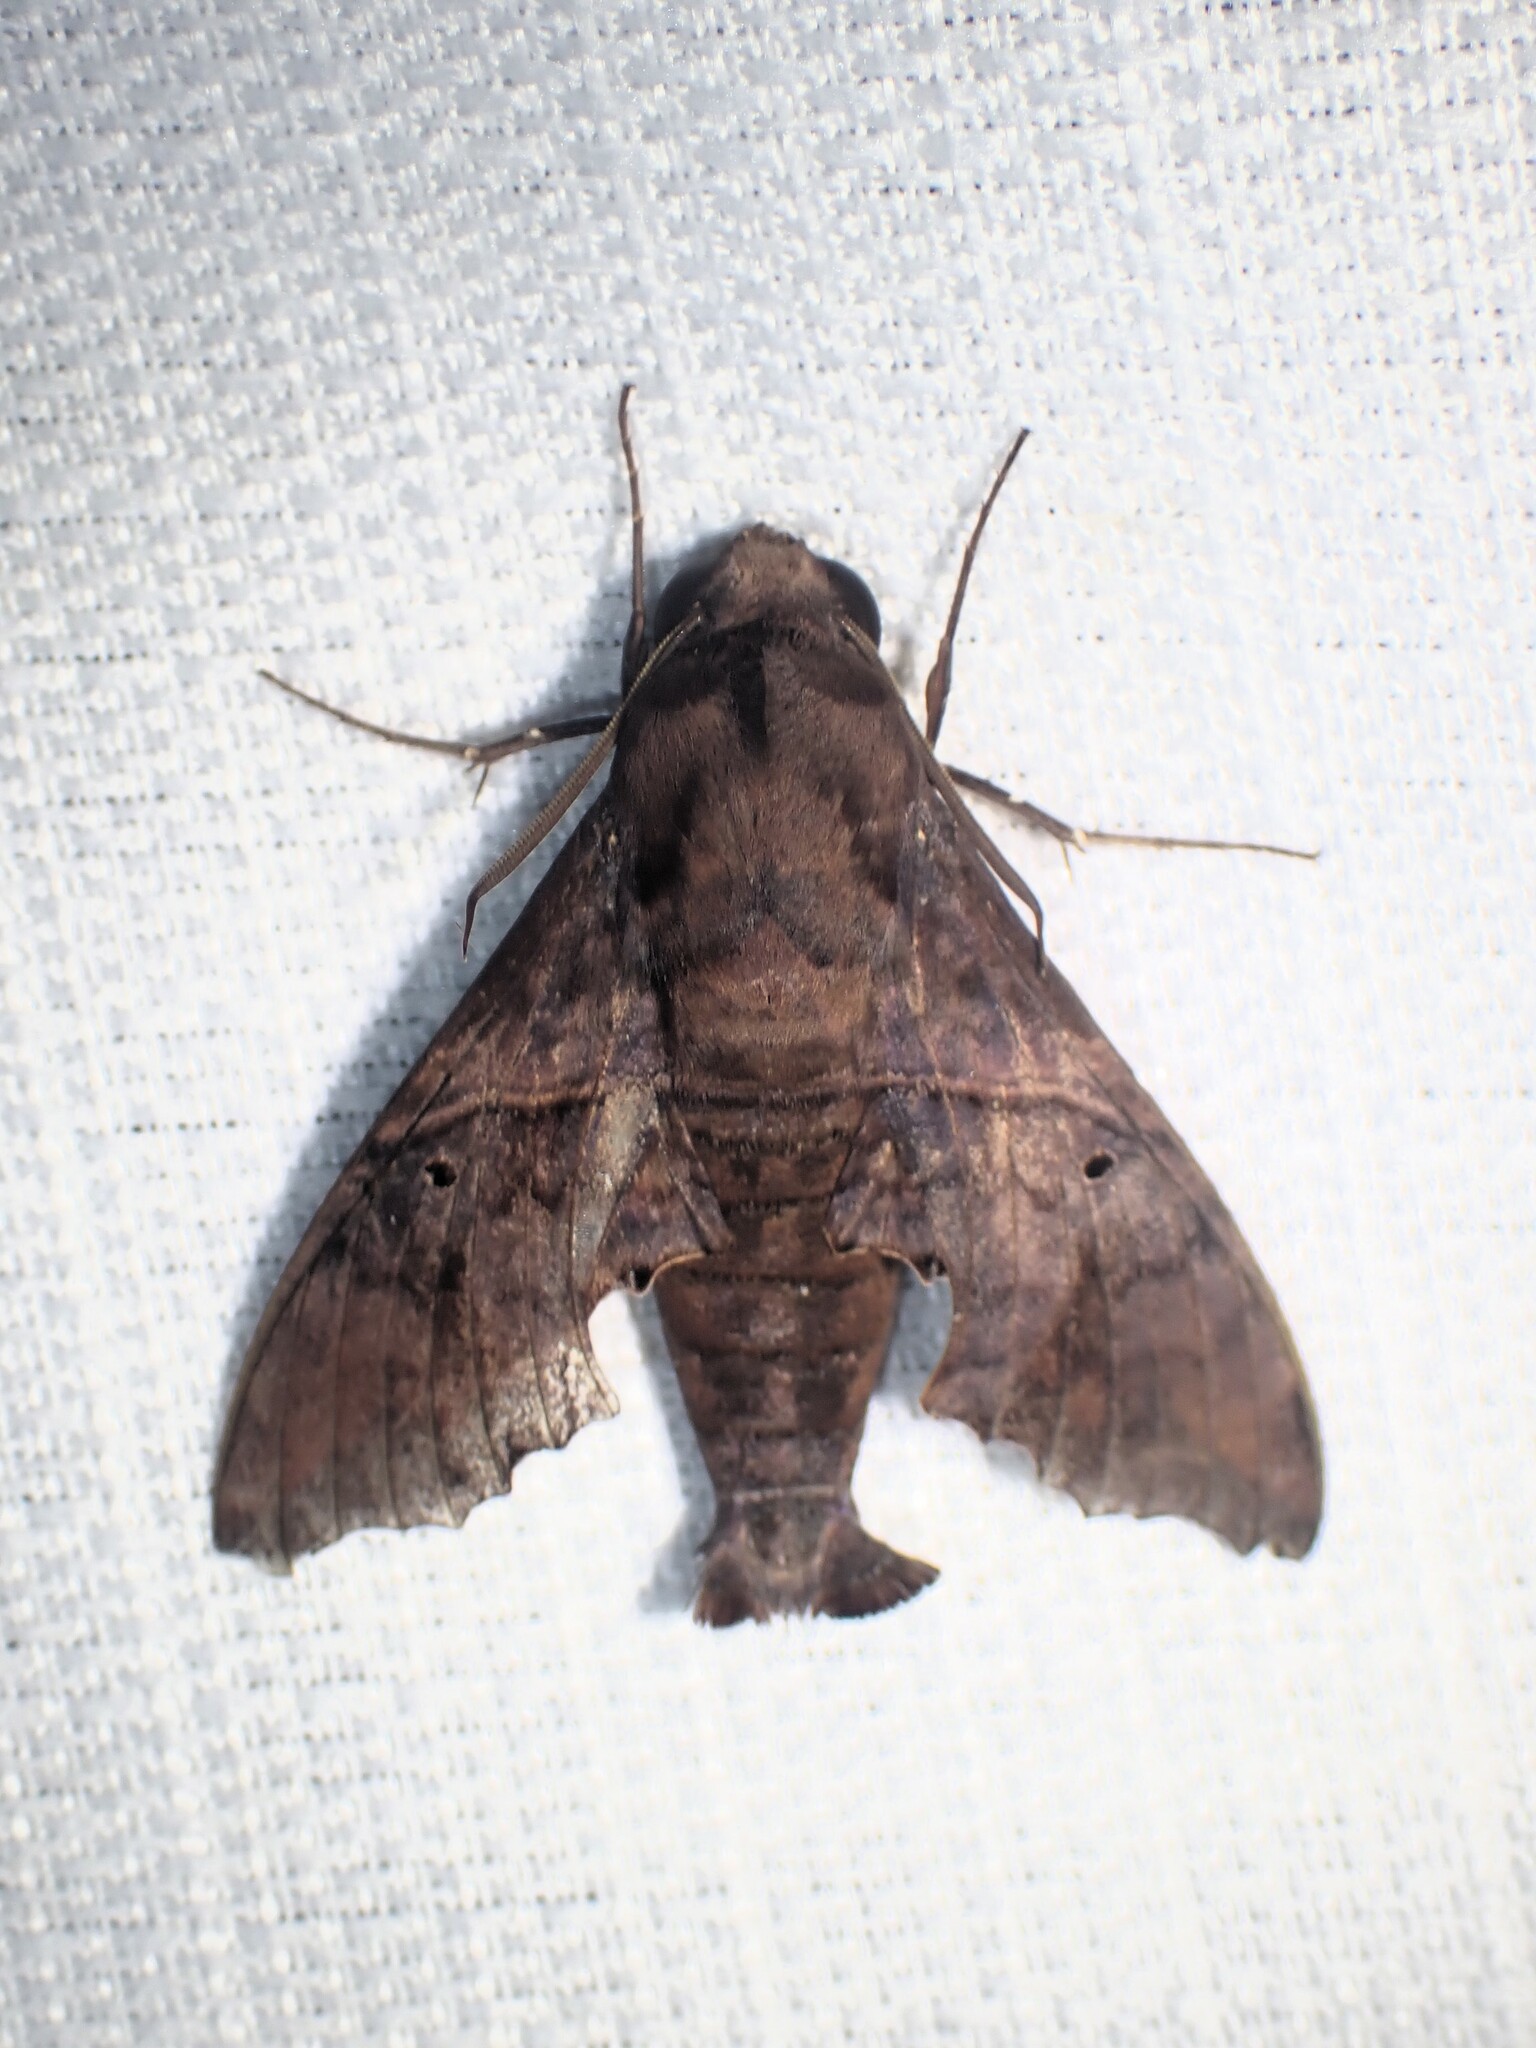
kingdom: Animalia
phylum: Arthropoda
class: Insecta
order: Lepidoptera
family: Sphingidae
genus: Enyo
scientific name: Enyo lugubris
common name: Mournful sphinx
